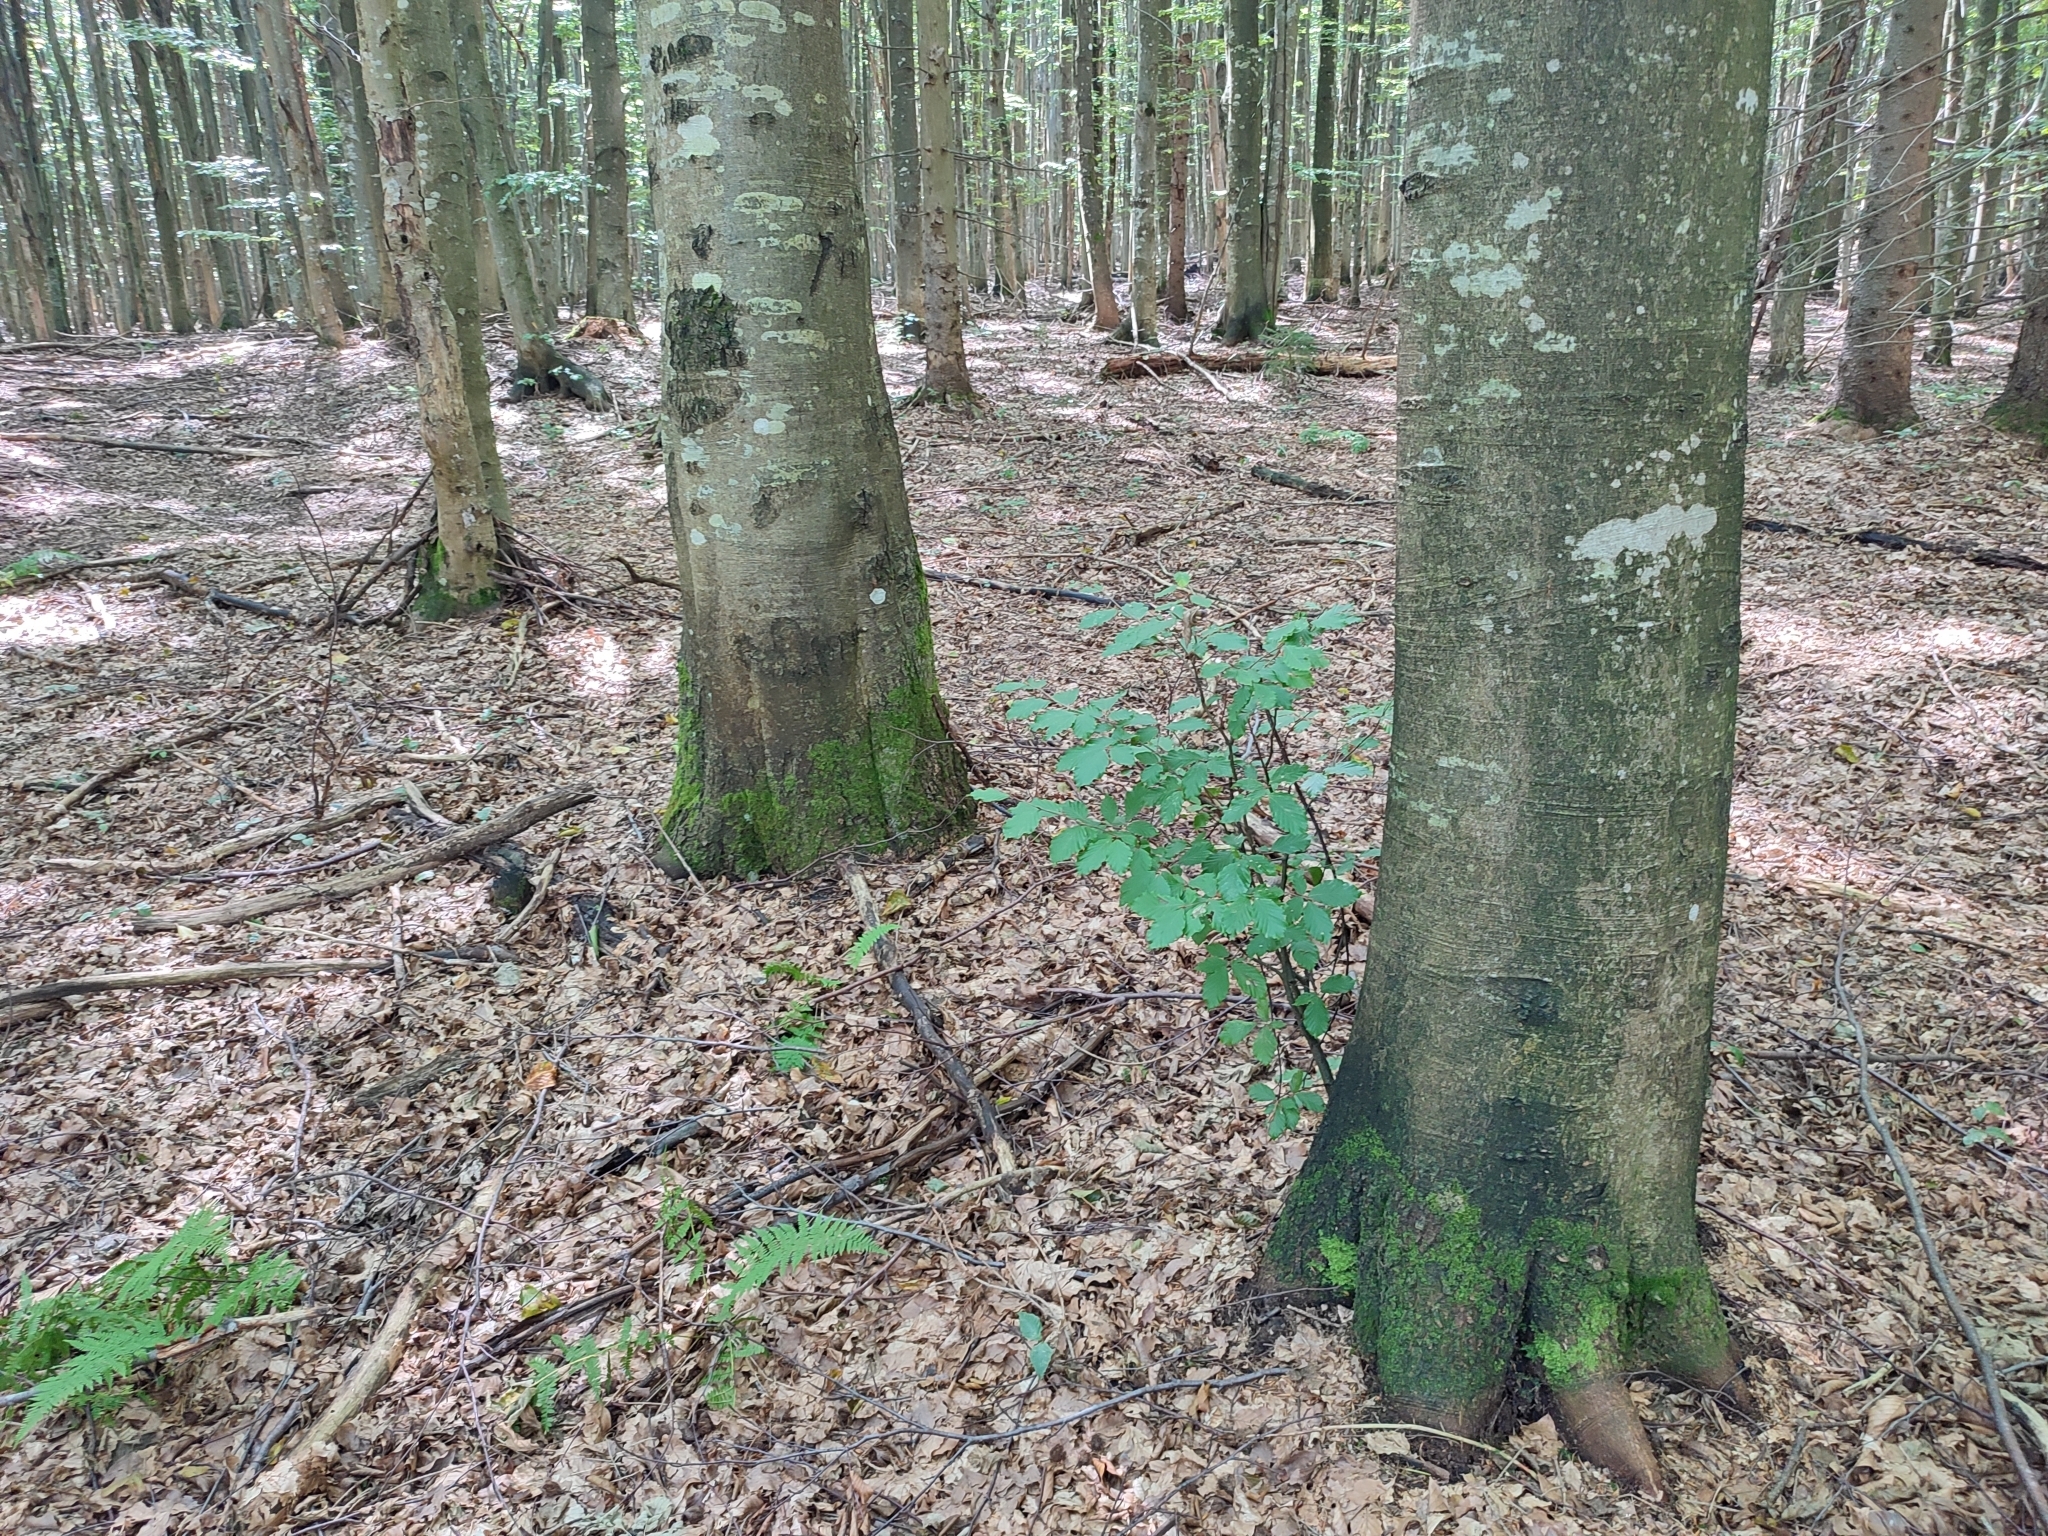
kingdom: Plantae
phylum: Tracheophyta
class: Magnoliopsida
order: Fagales
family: Fagaceae
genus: Fagus
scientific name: Fagus sylvatica
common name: Beech
